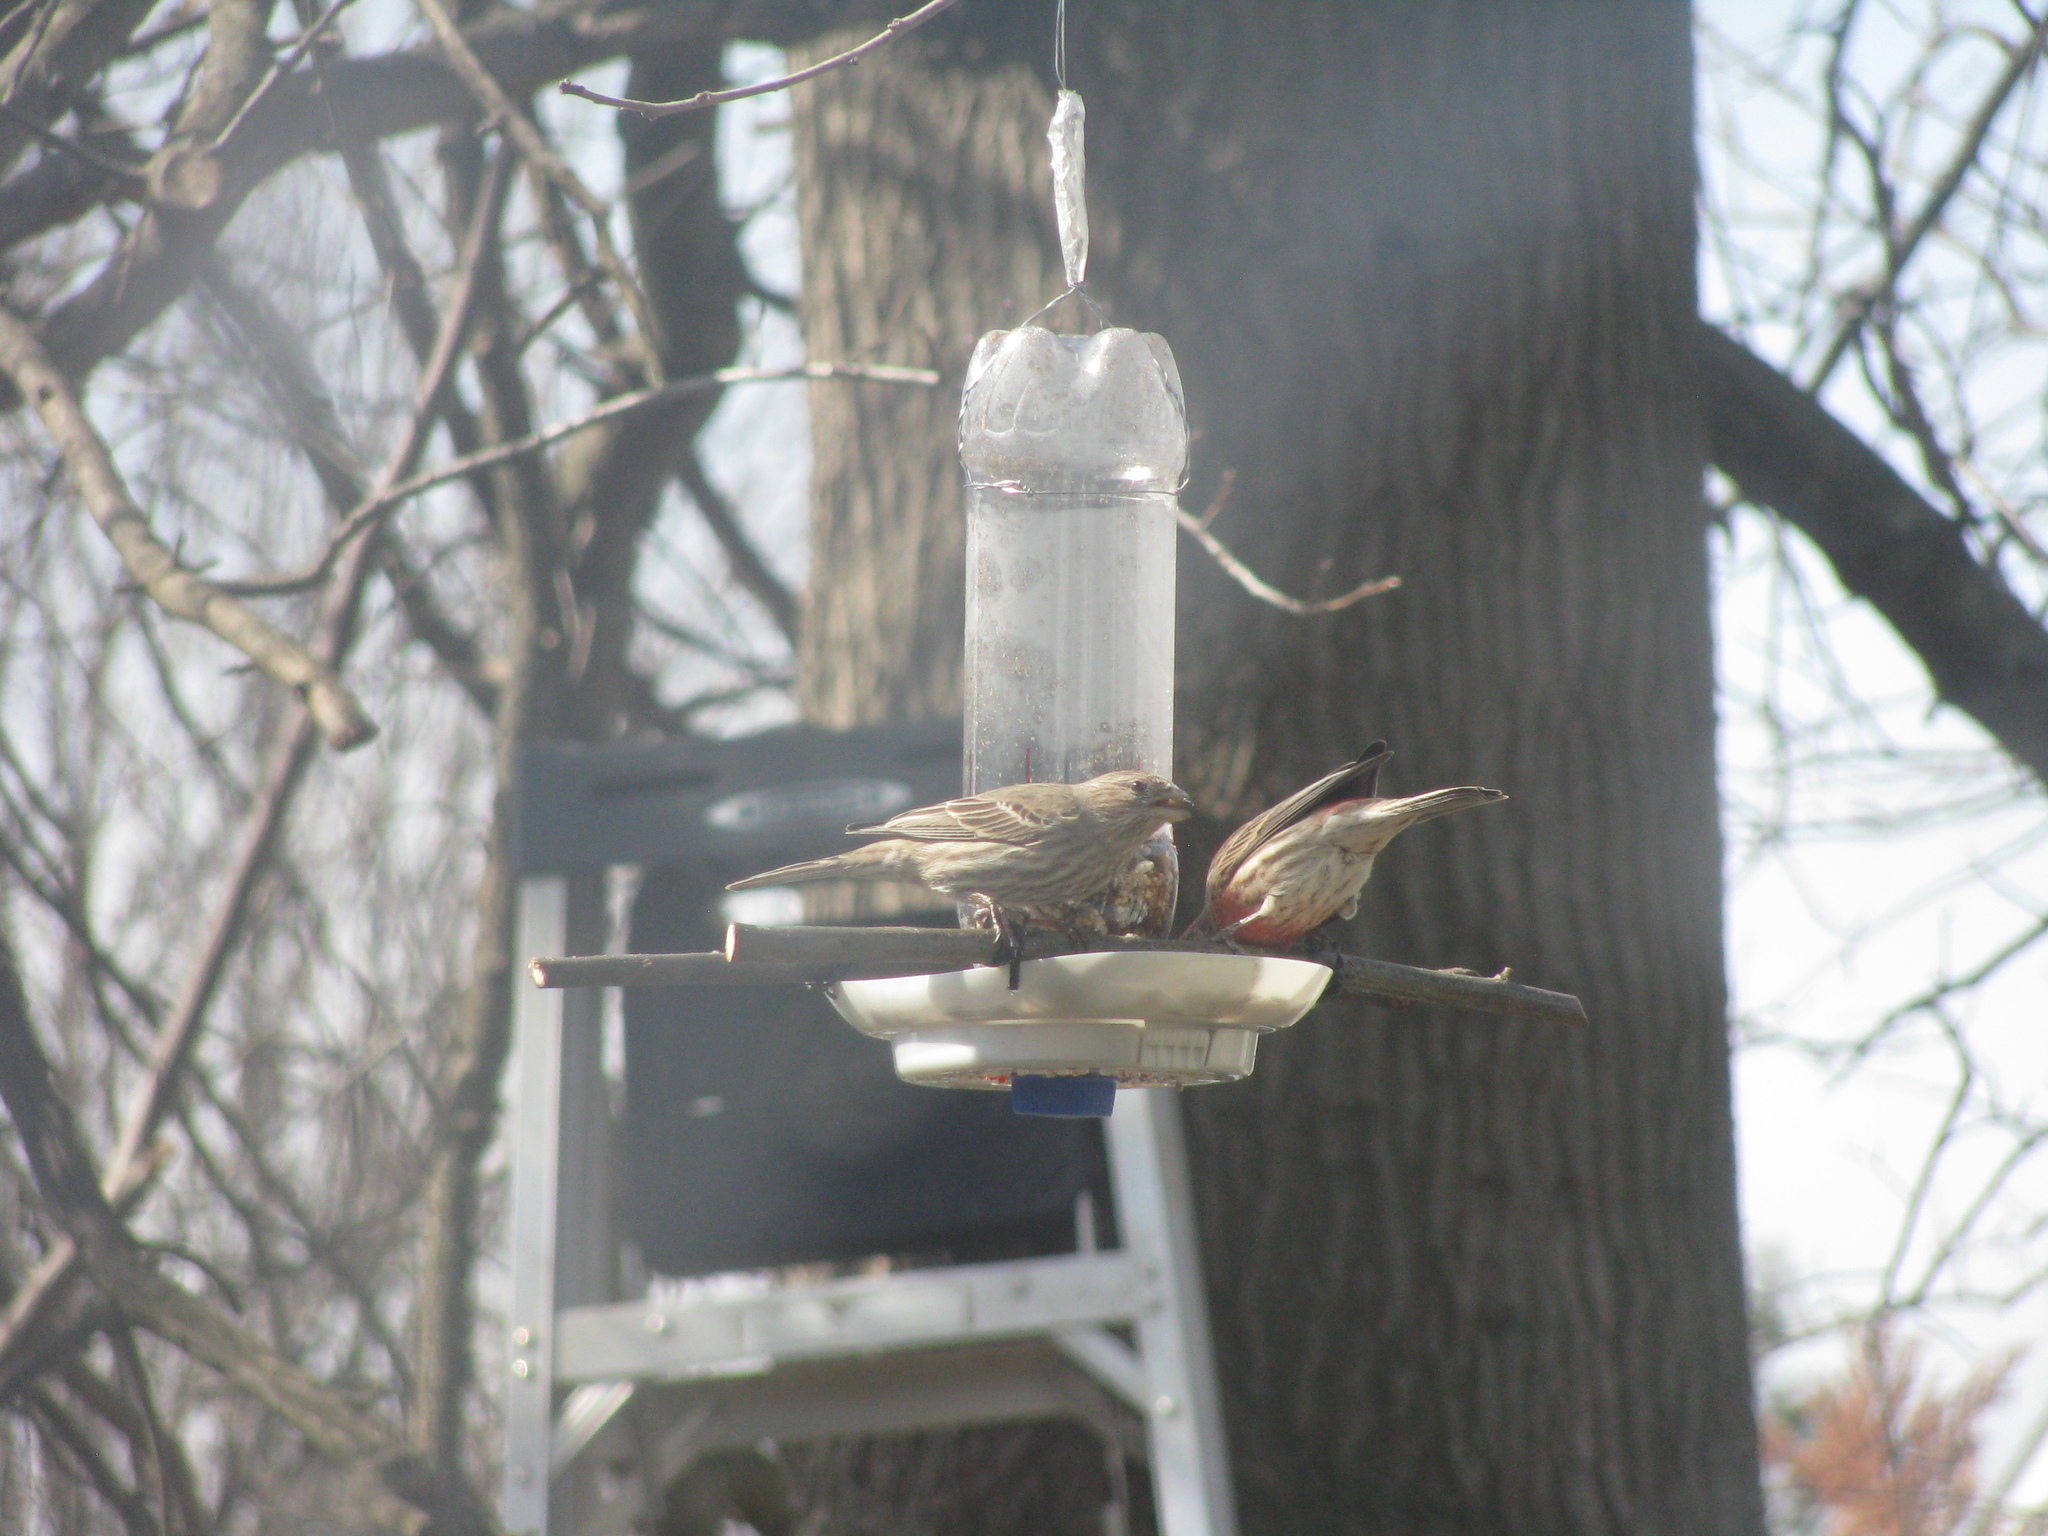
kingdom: Animalia
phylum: Chordata
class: Aves
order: Passeriformes
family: Fringillidae
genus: Haemorhous
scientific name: Haemorhous mexicanus
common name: House finch
